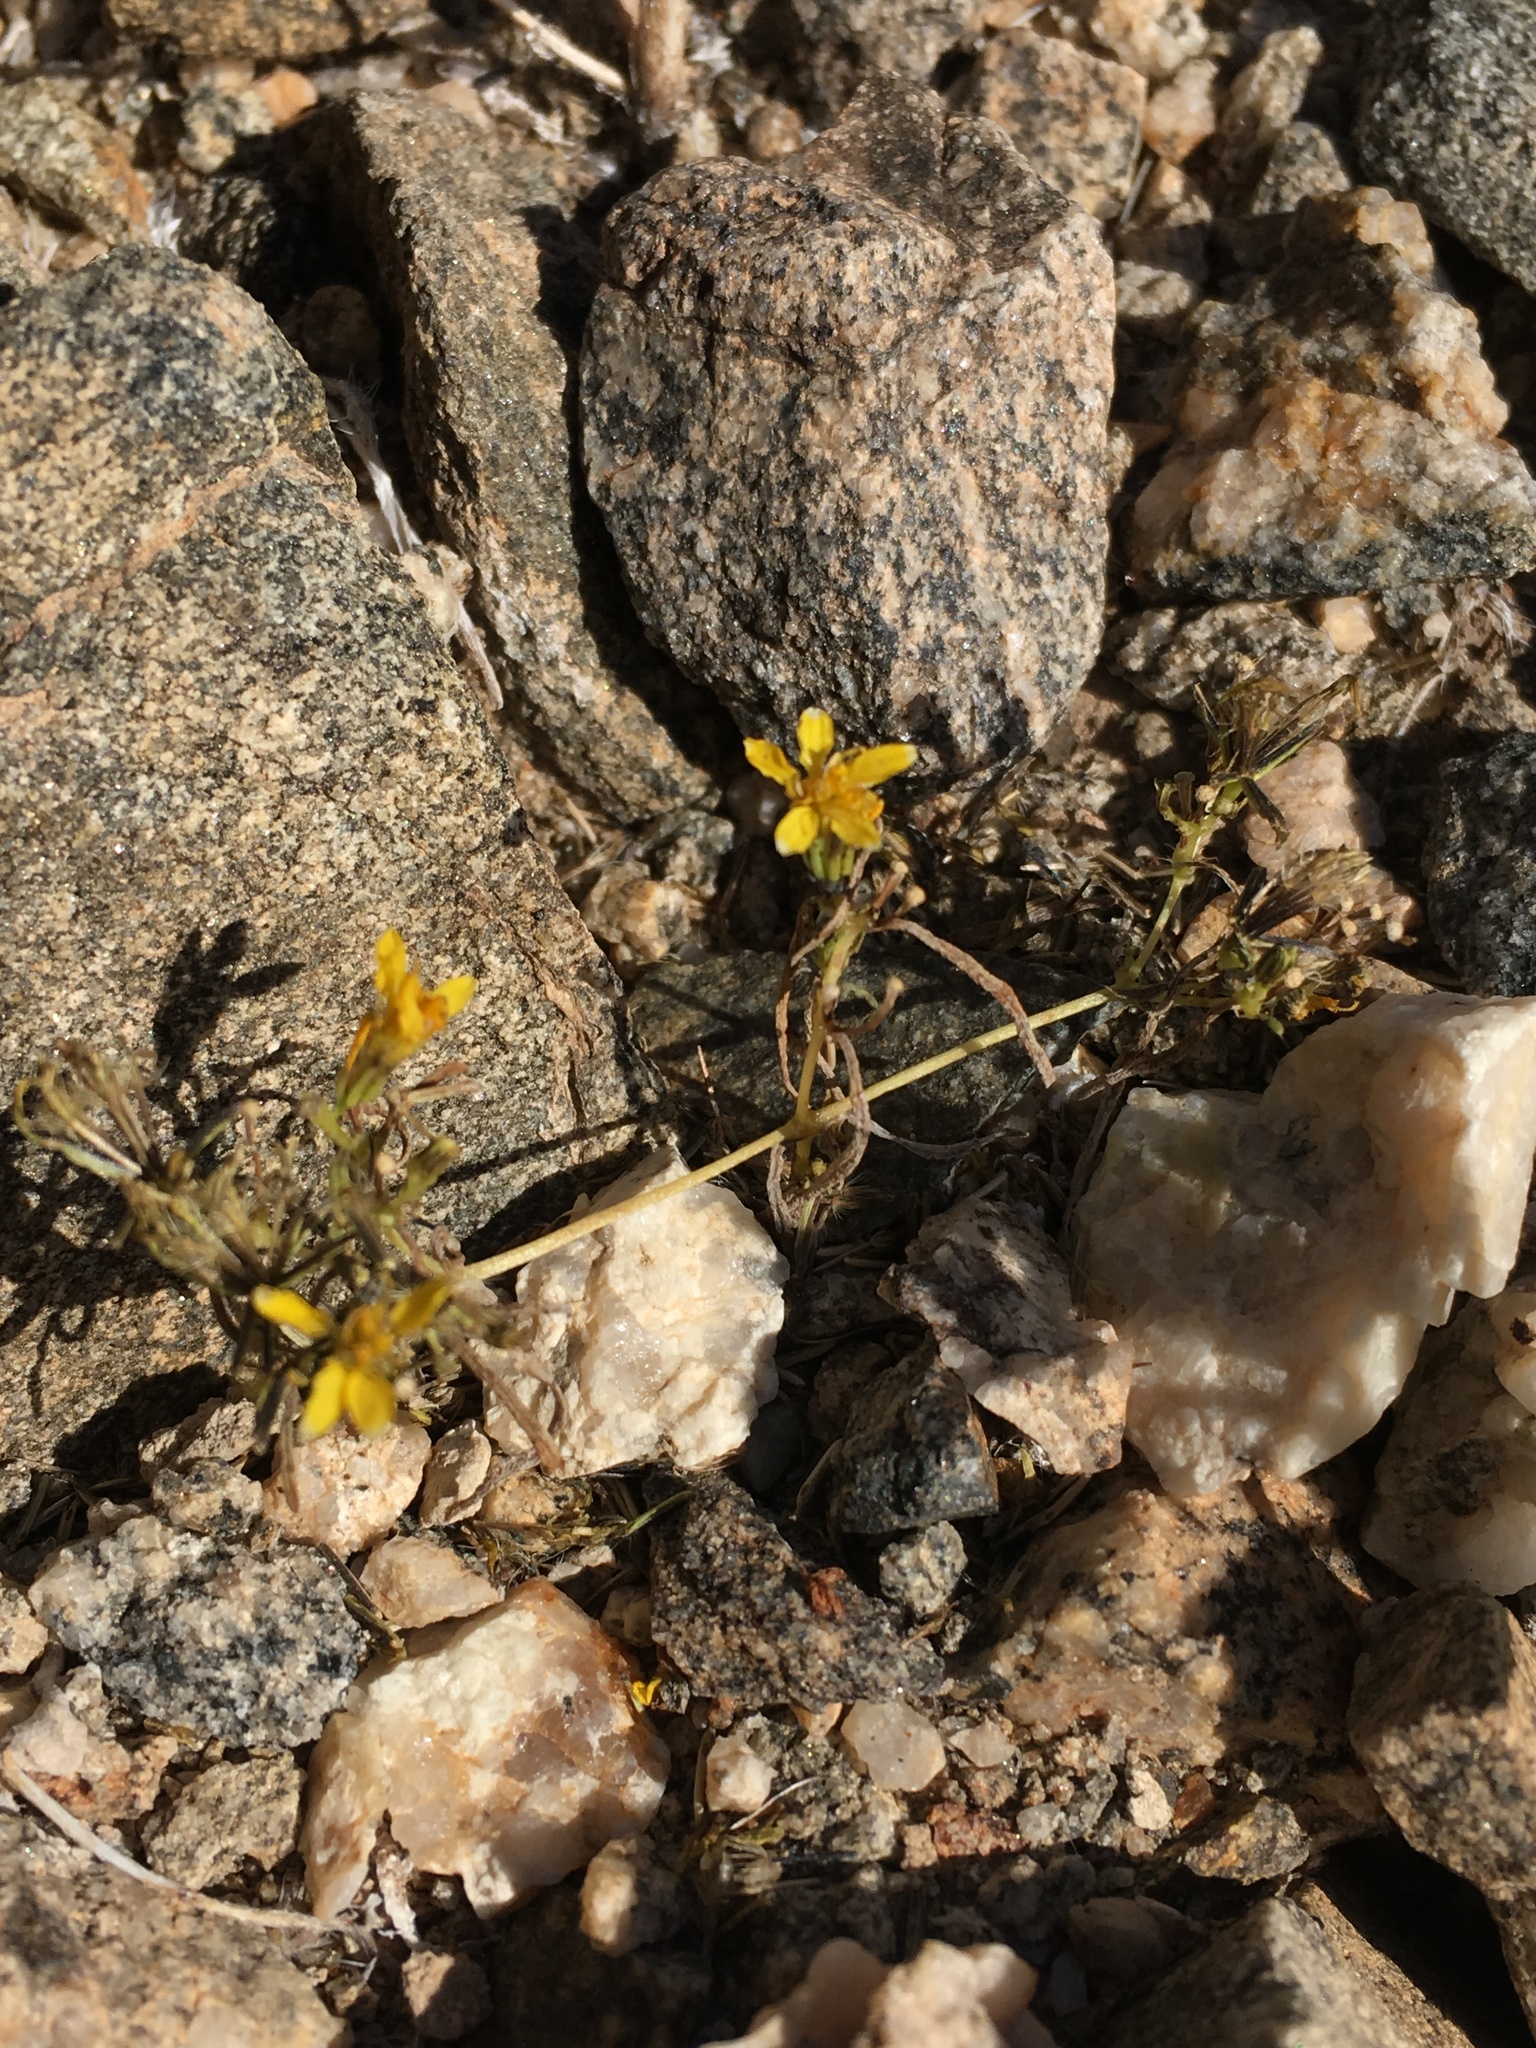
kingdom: Plantae
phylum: Tracheophyta
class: Magnoliopsida
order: Asterales
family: Asteraceae
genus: Pectis
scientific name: Pectis papposa
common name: Many-bristle chinchweed
